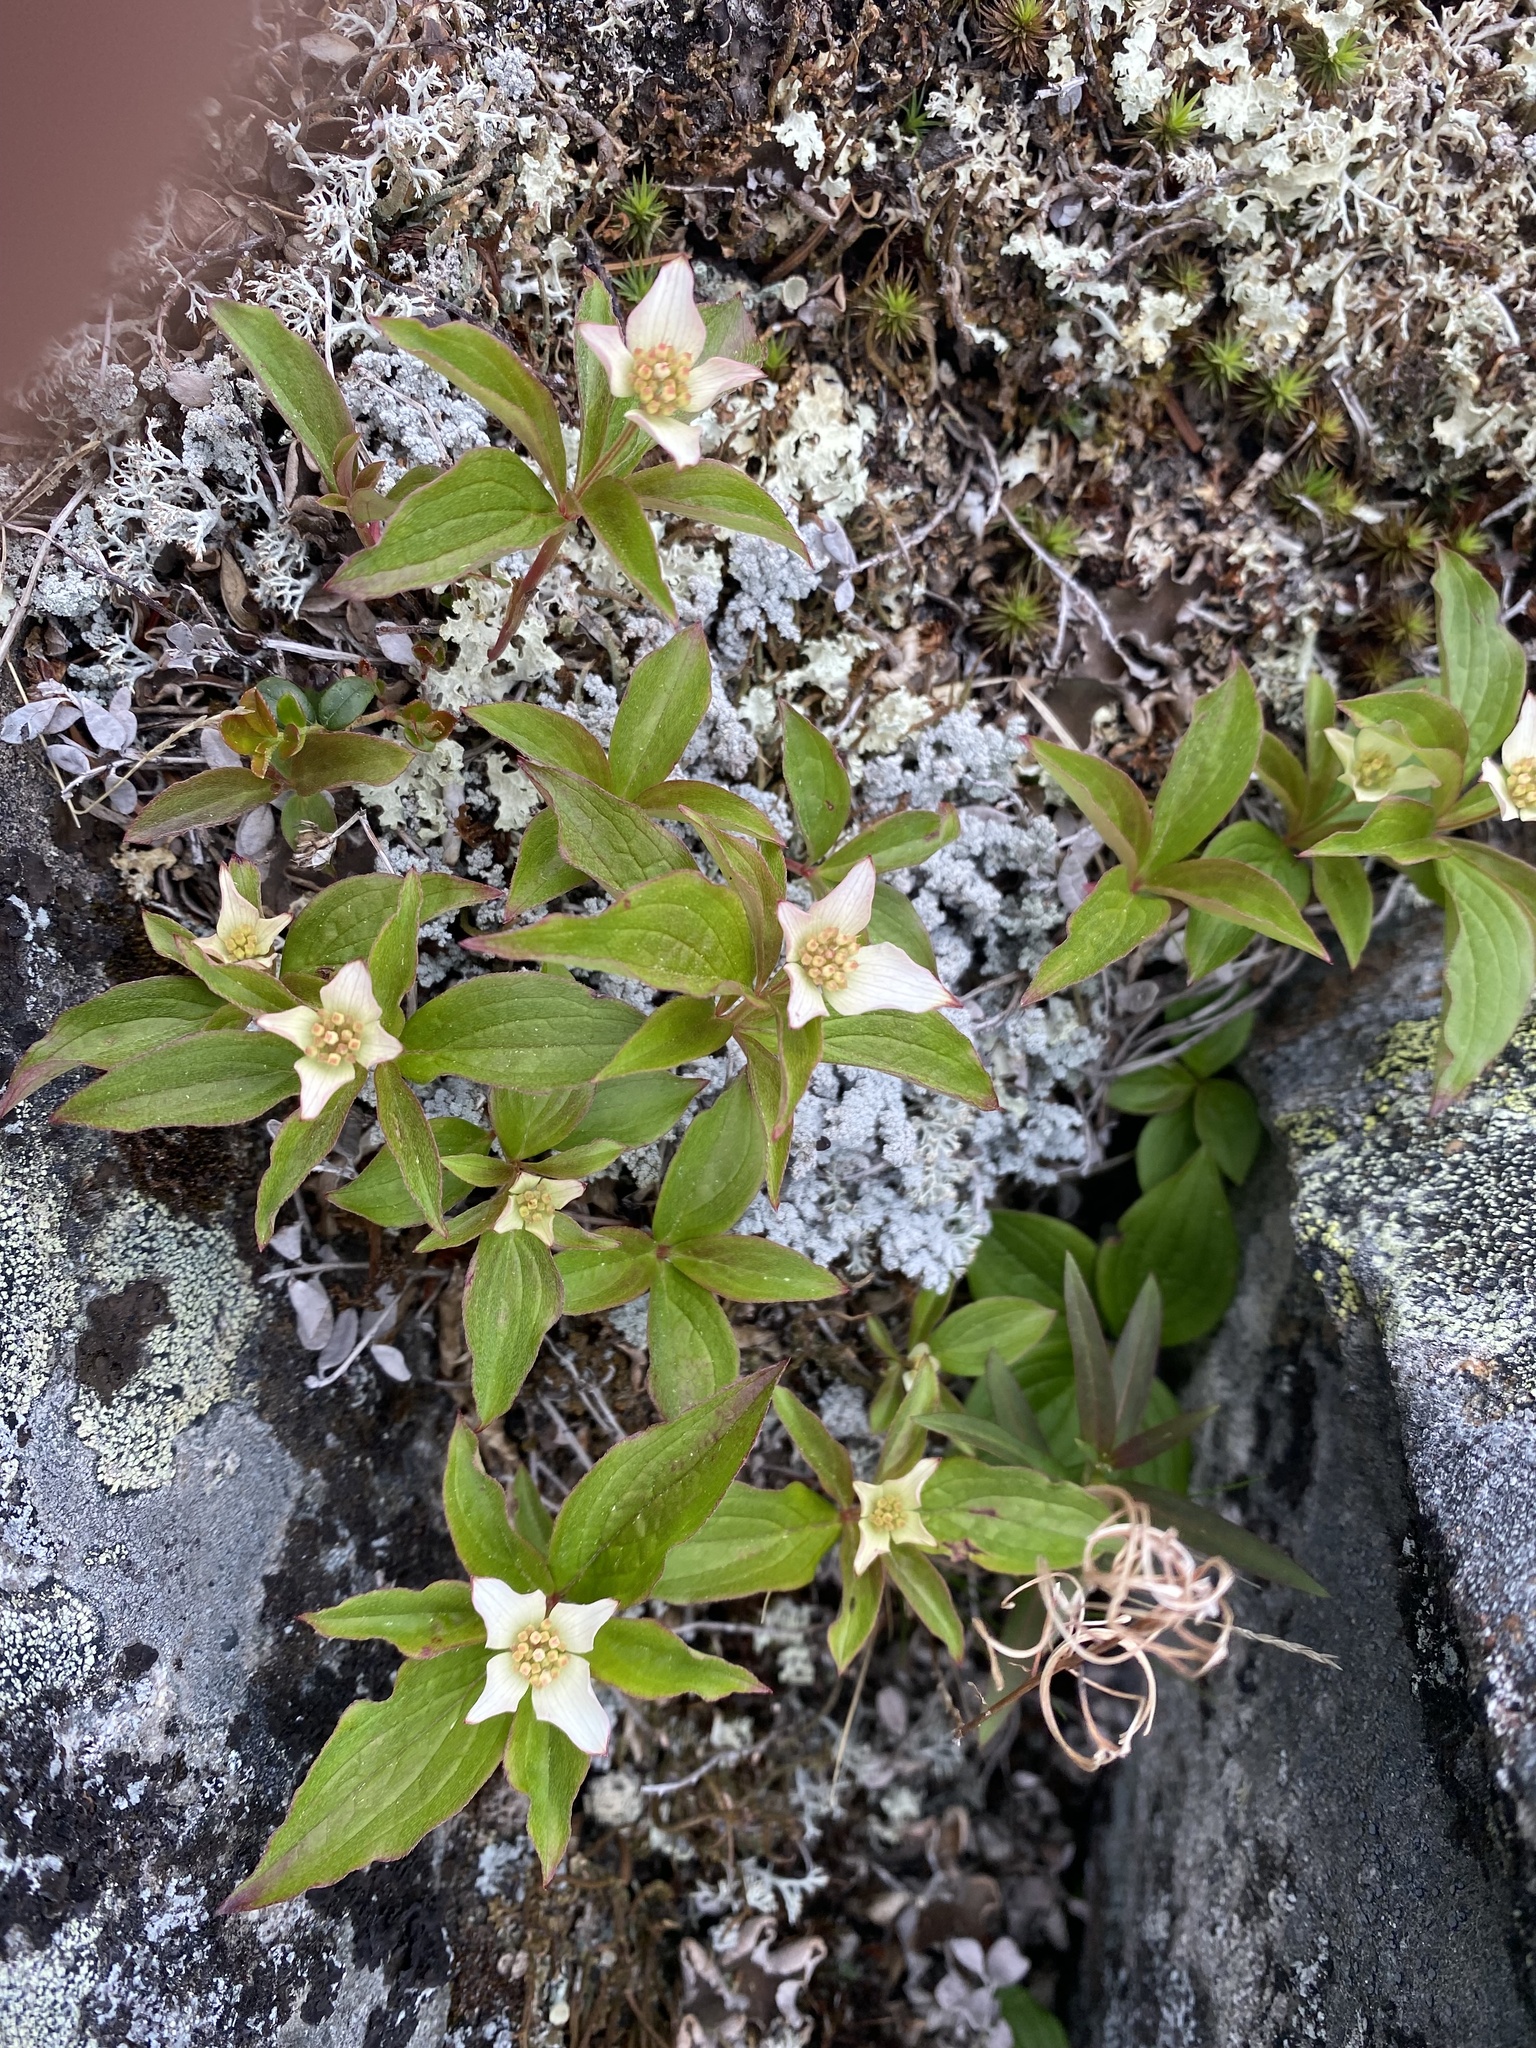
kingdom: Plantae
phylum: Tracheophyta
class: Magnoliopsida
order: Cornales
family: Cornaceae
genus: Cornus
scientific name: Cornus canadensis
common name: Creeping dogwood
